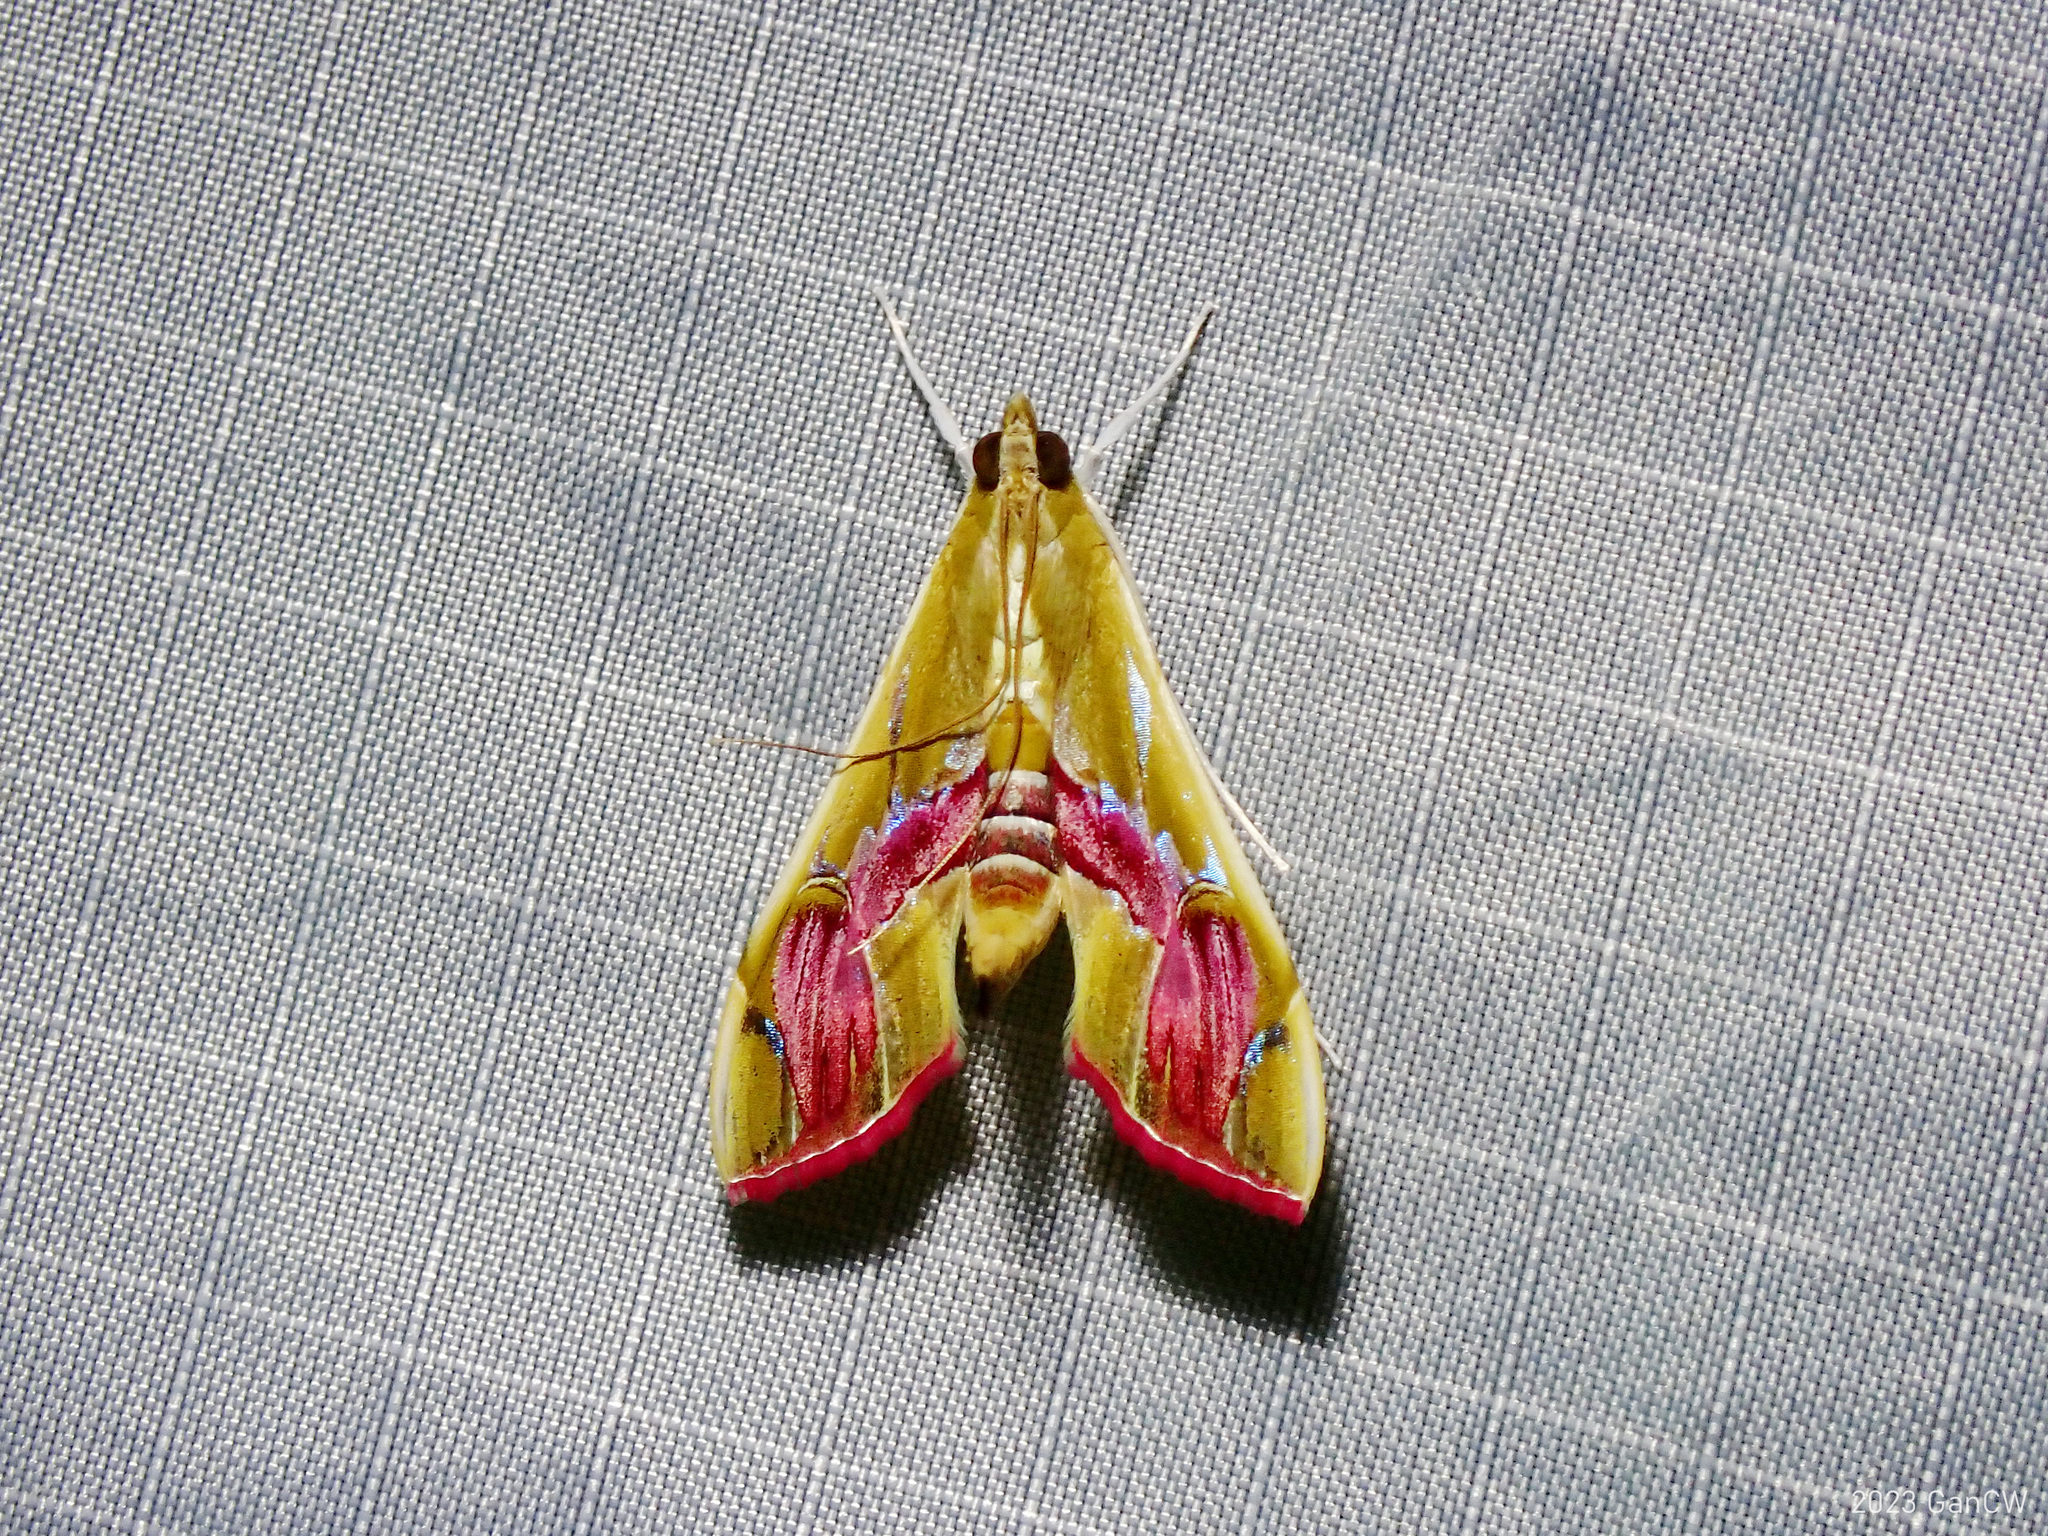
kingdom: Animalia
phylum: Arthropoda
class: Insecta
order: Lepidoptera
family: Crambidae
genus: Agathodes
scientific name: Agathodes ostentalis
